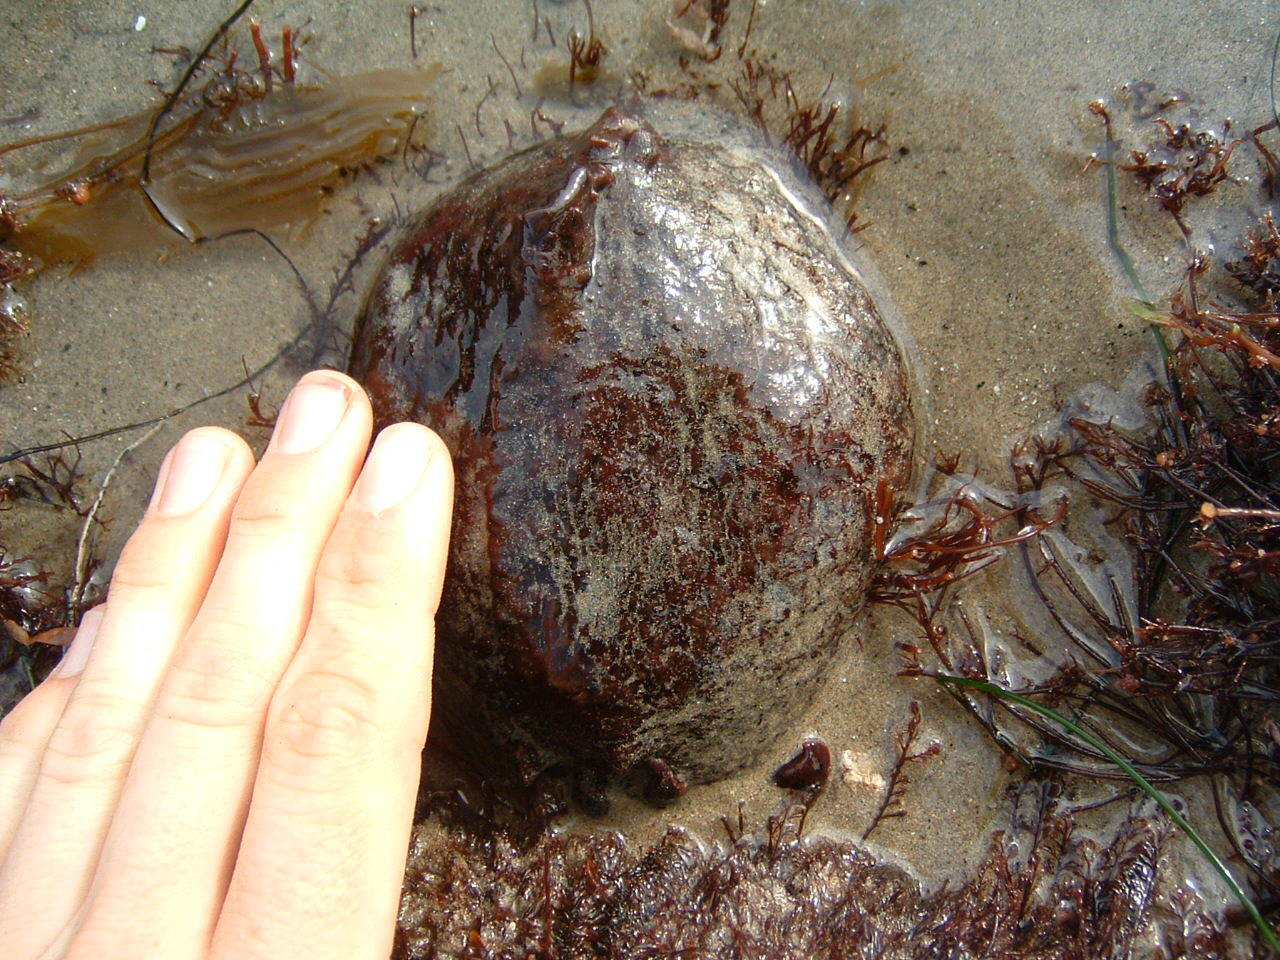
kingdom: Animalia
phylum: Mollusca
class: Gastropoda
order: Aplysiida
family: Aplysiidae
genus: Aplysia
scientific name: Aplysia californica
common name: California seahare
